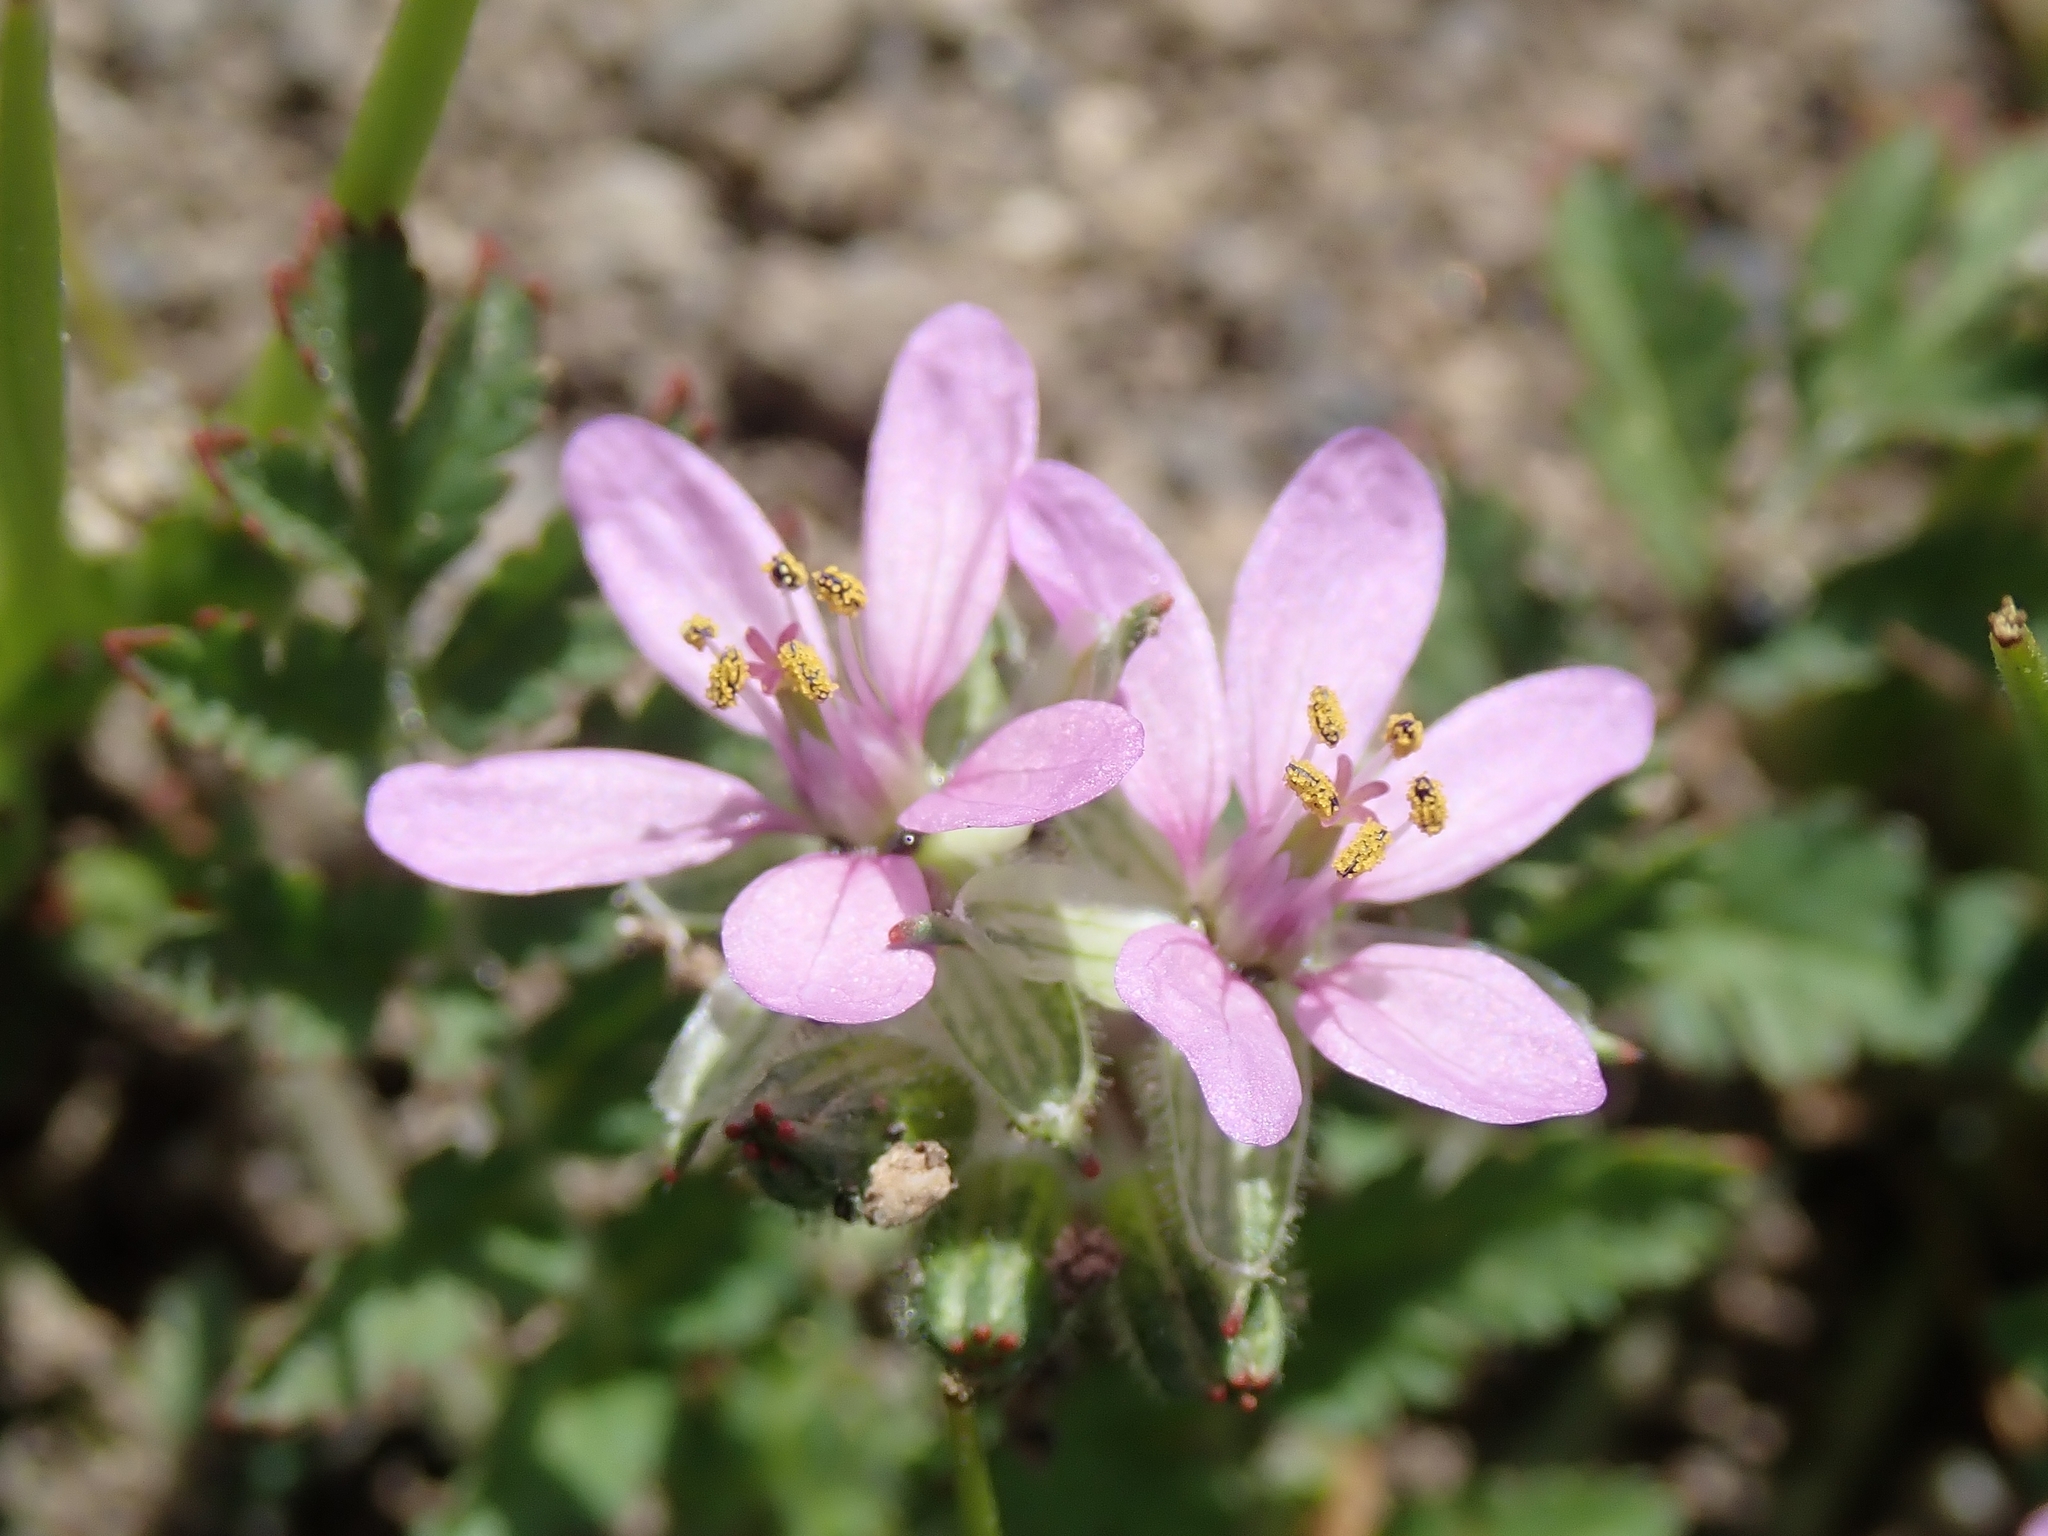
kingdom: Plantae
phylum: Tracheophyta
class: Magnoliopsida
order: Geraniales
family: Geraniaceae
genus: Erodium
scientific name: Erodium moschatum
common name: Musk stork's-bill
